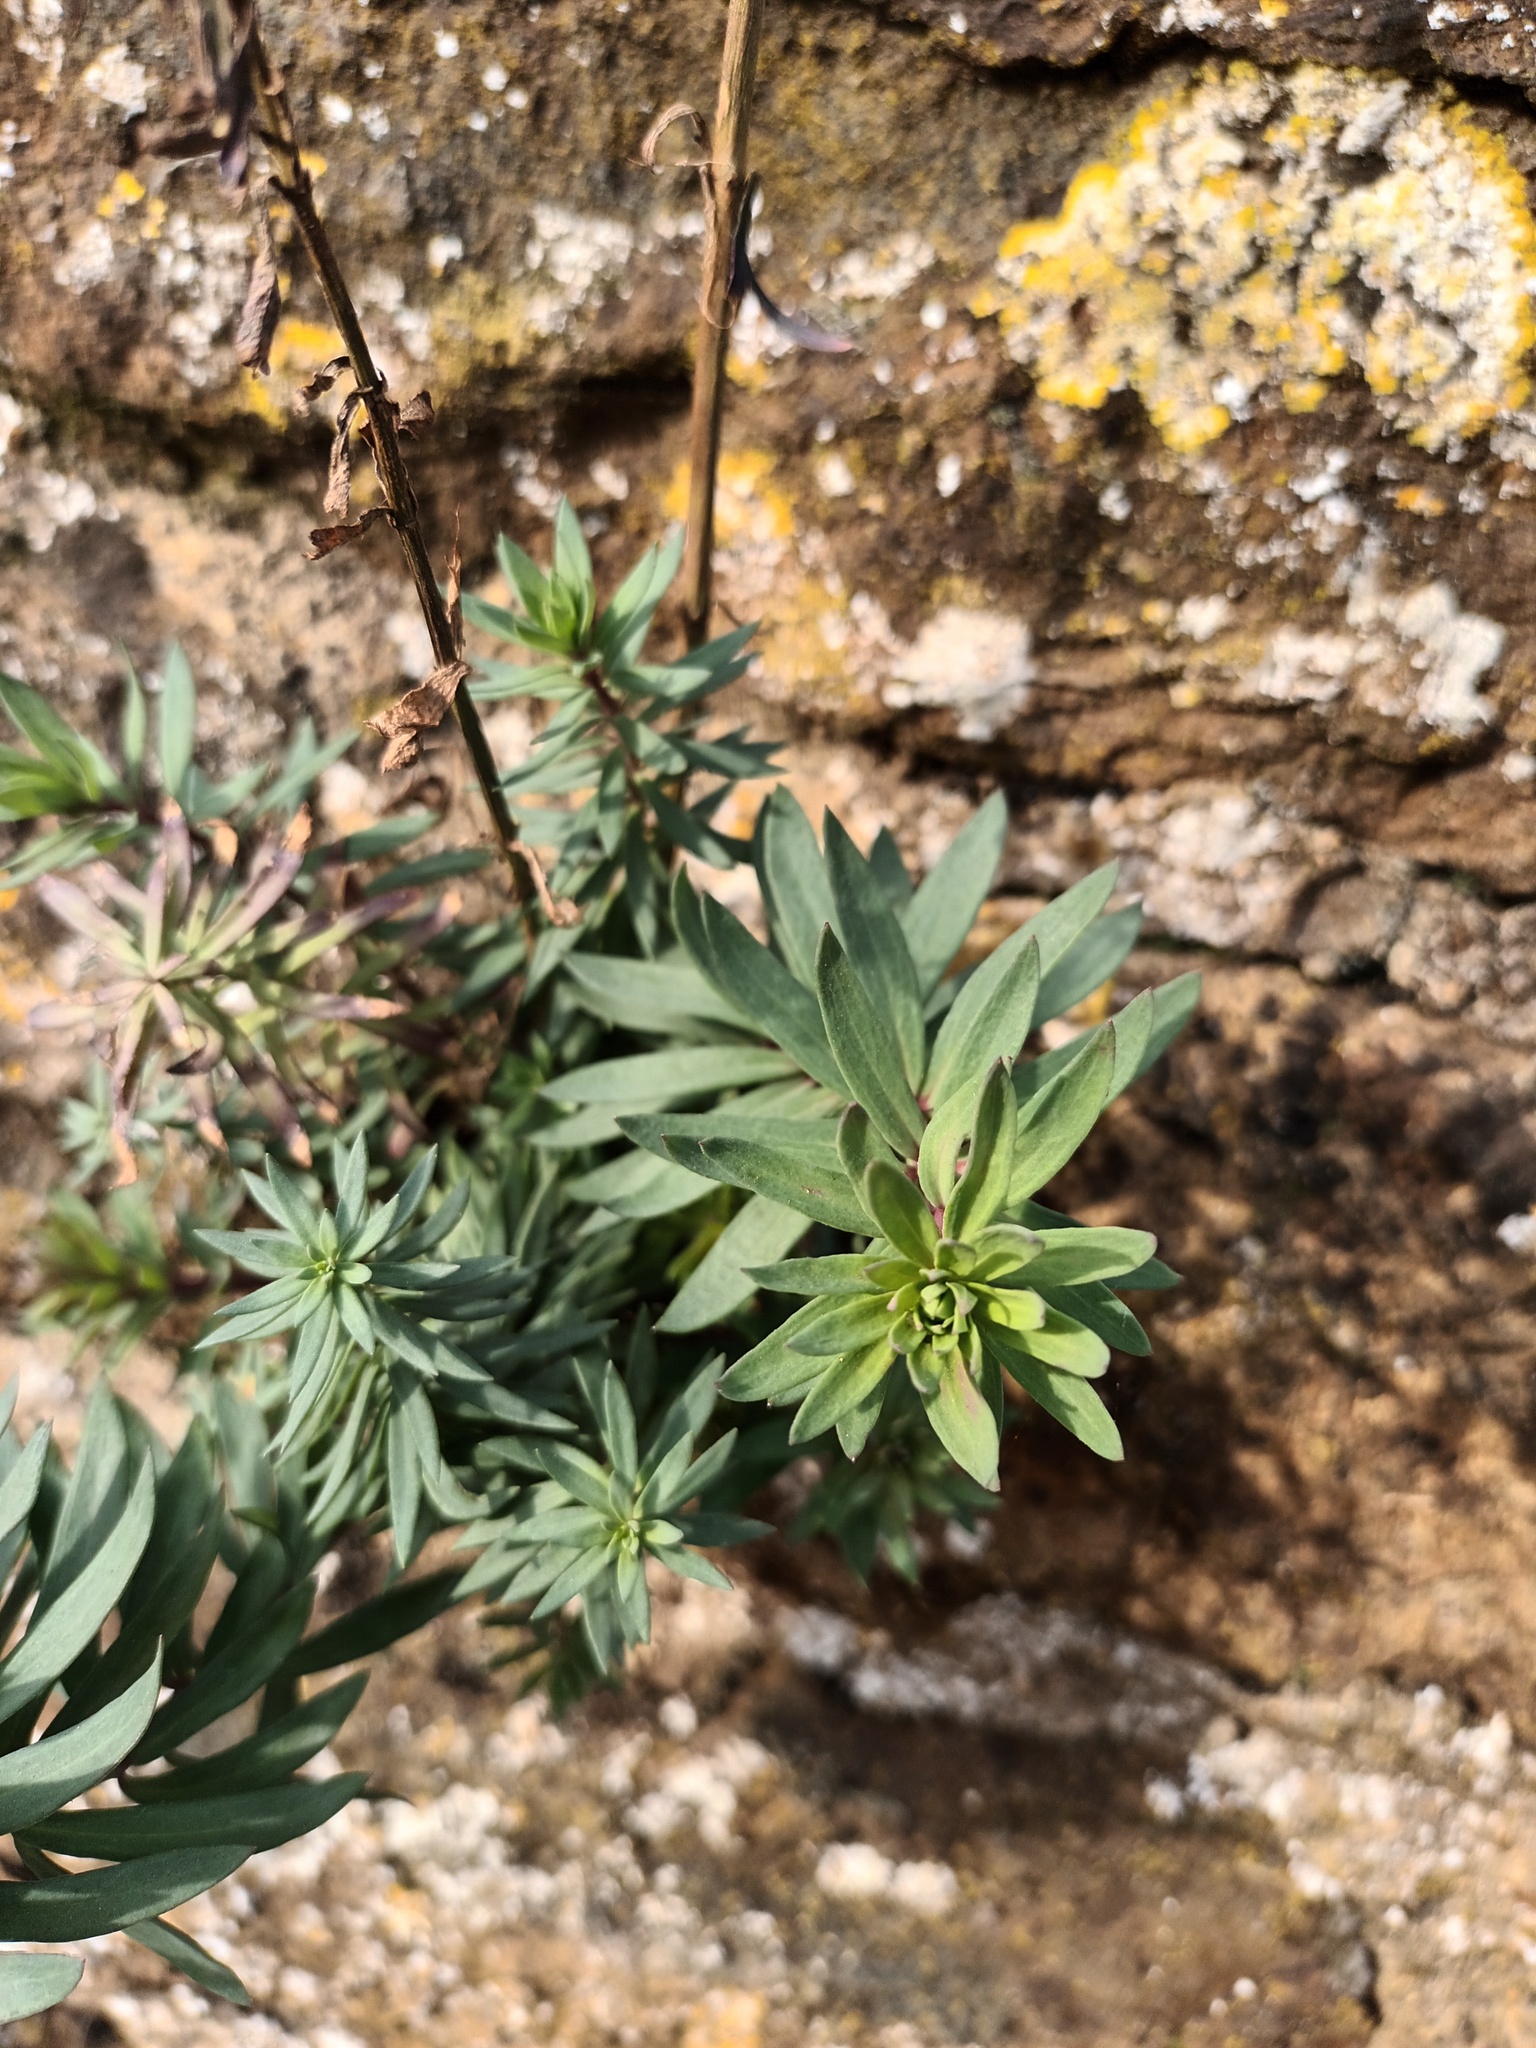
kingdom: Plantae
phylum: Tracheophyta
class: Magnoliopsida
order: Lamiales
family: Plantaginaceae
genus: Linaria
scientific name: Linaria purpurea
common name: Purple toadflax
